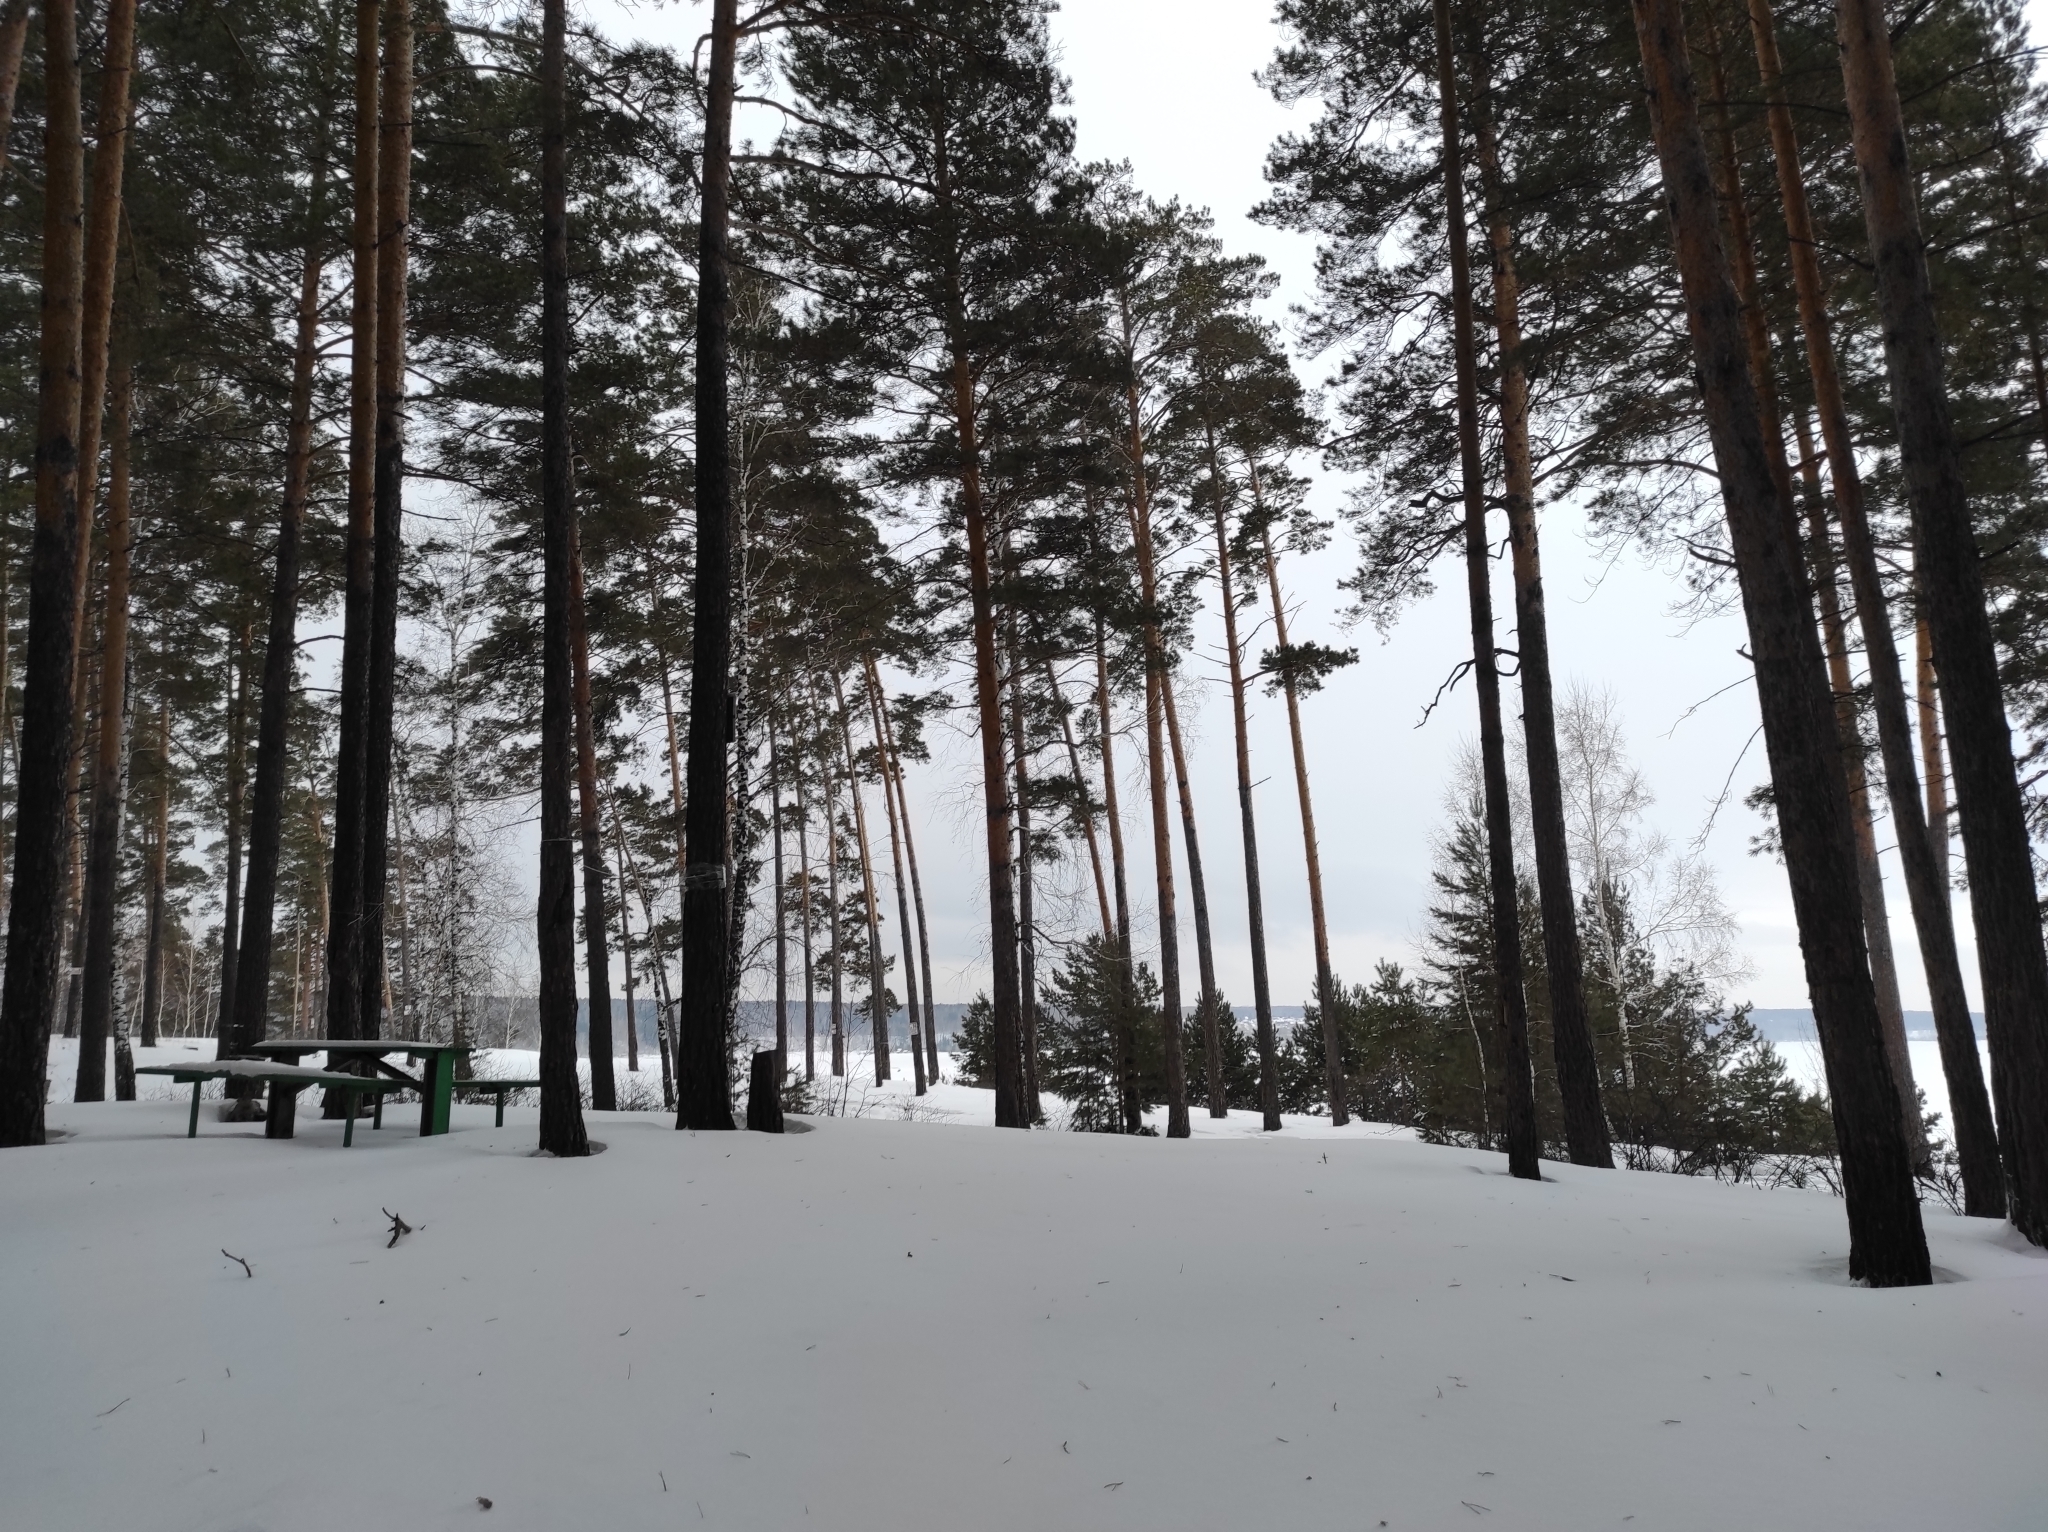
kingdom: Plantae
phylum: Tracheophyta
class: Pinopsida
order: Pinales
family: Pinaceae
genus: Pinus
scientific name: Pinus sylvestris
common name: Scots pine
